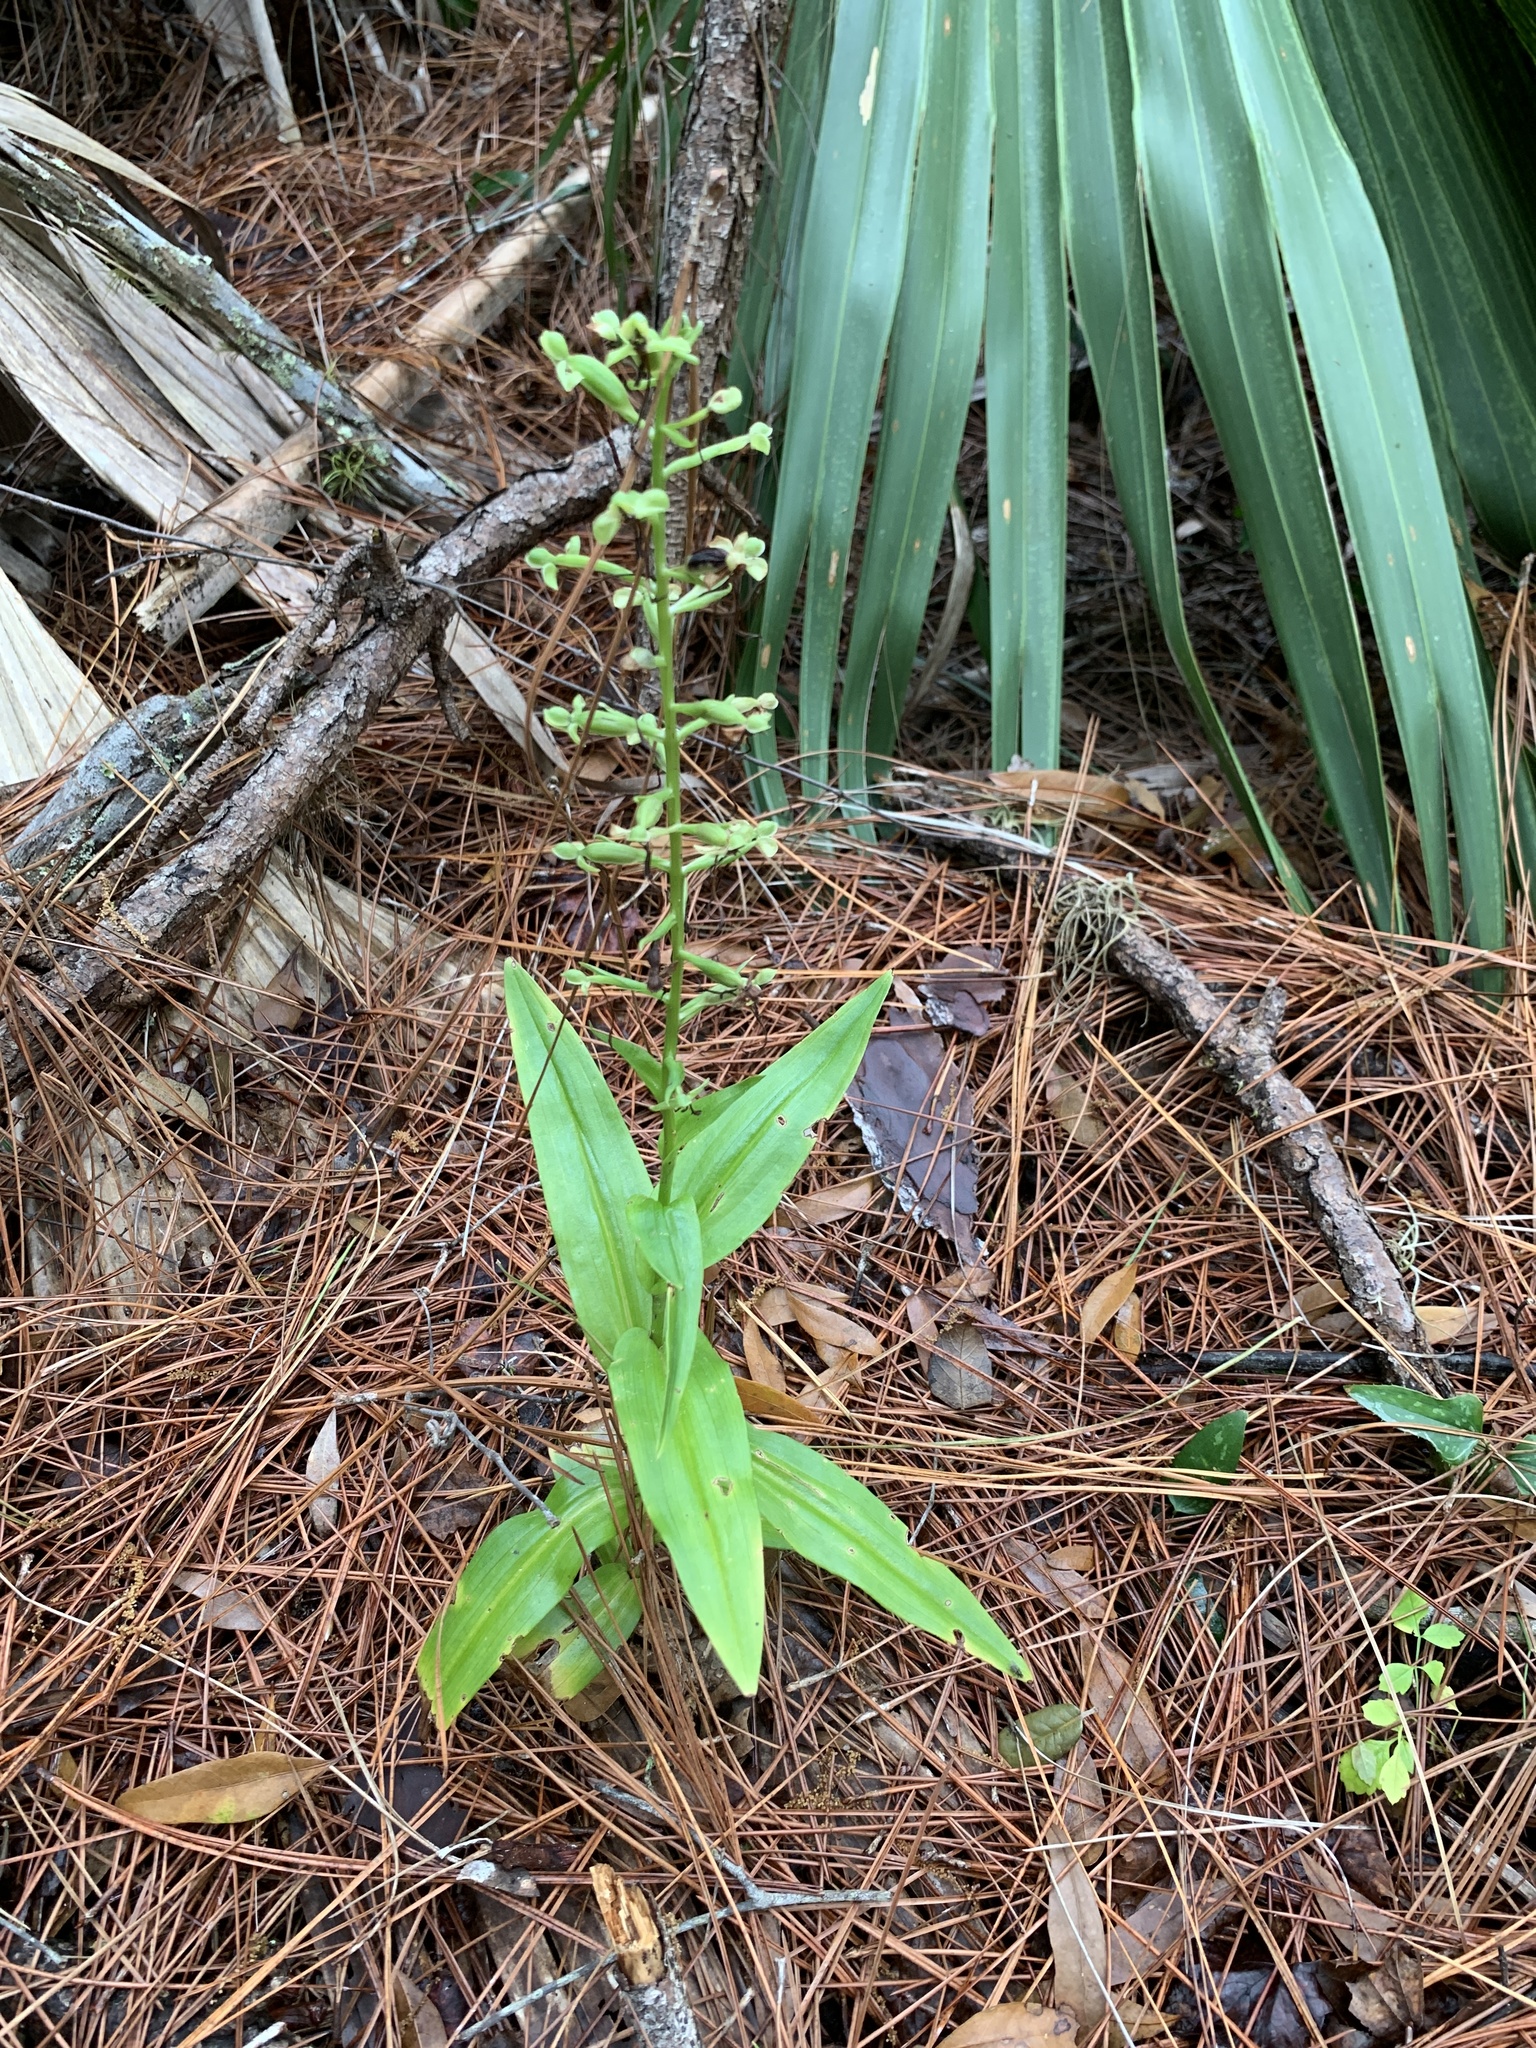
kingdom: Plantae
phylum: Tracheophyta
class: Liliopsida
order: Asparagales
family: Orchidaceae
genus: Habenaria
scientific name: Habenaria floribunda
